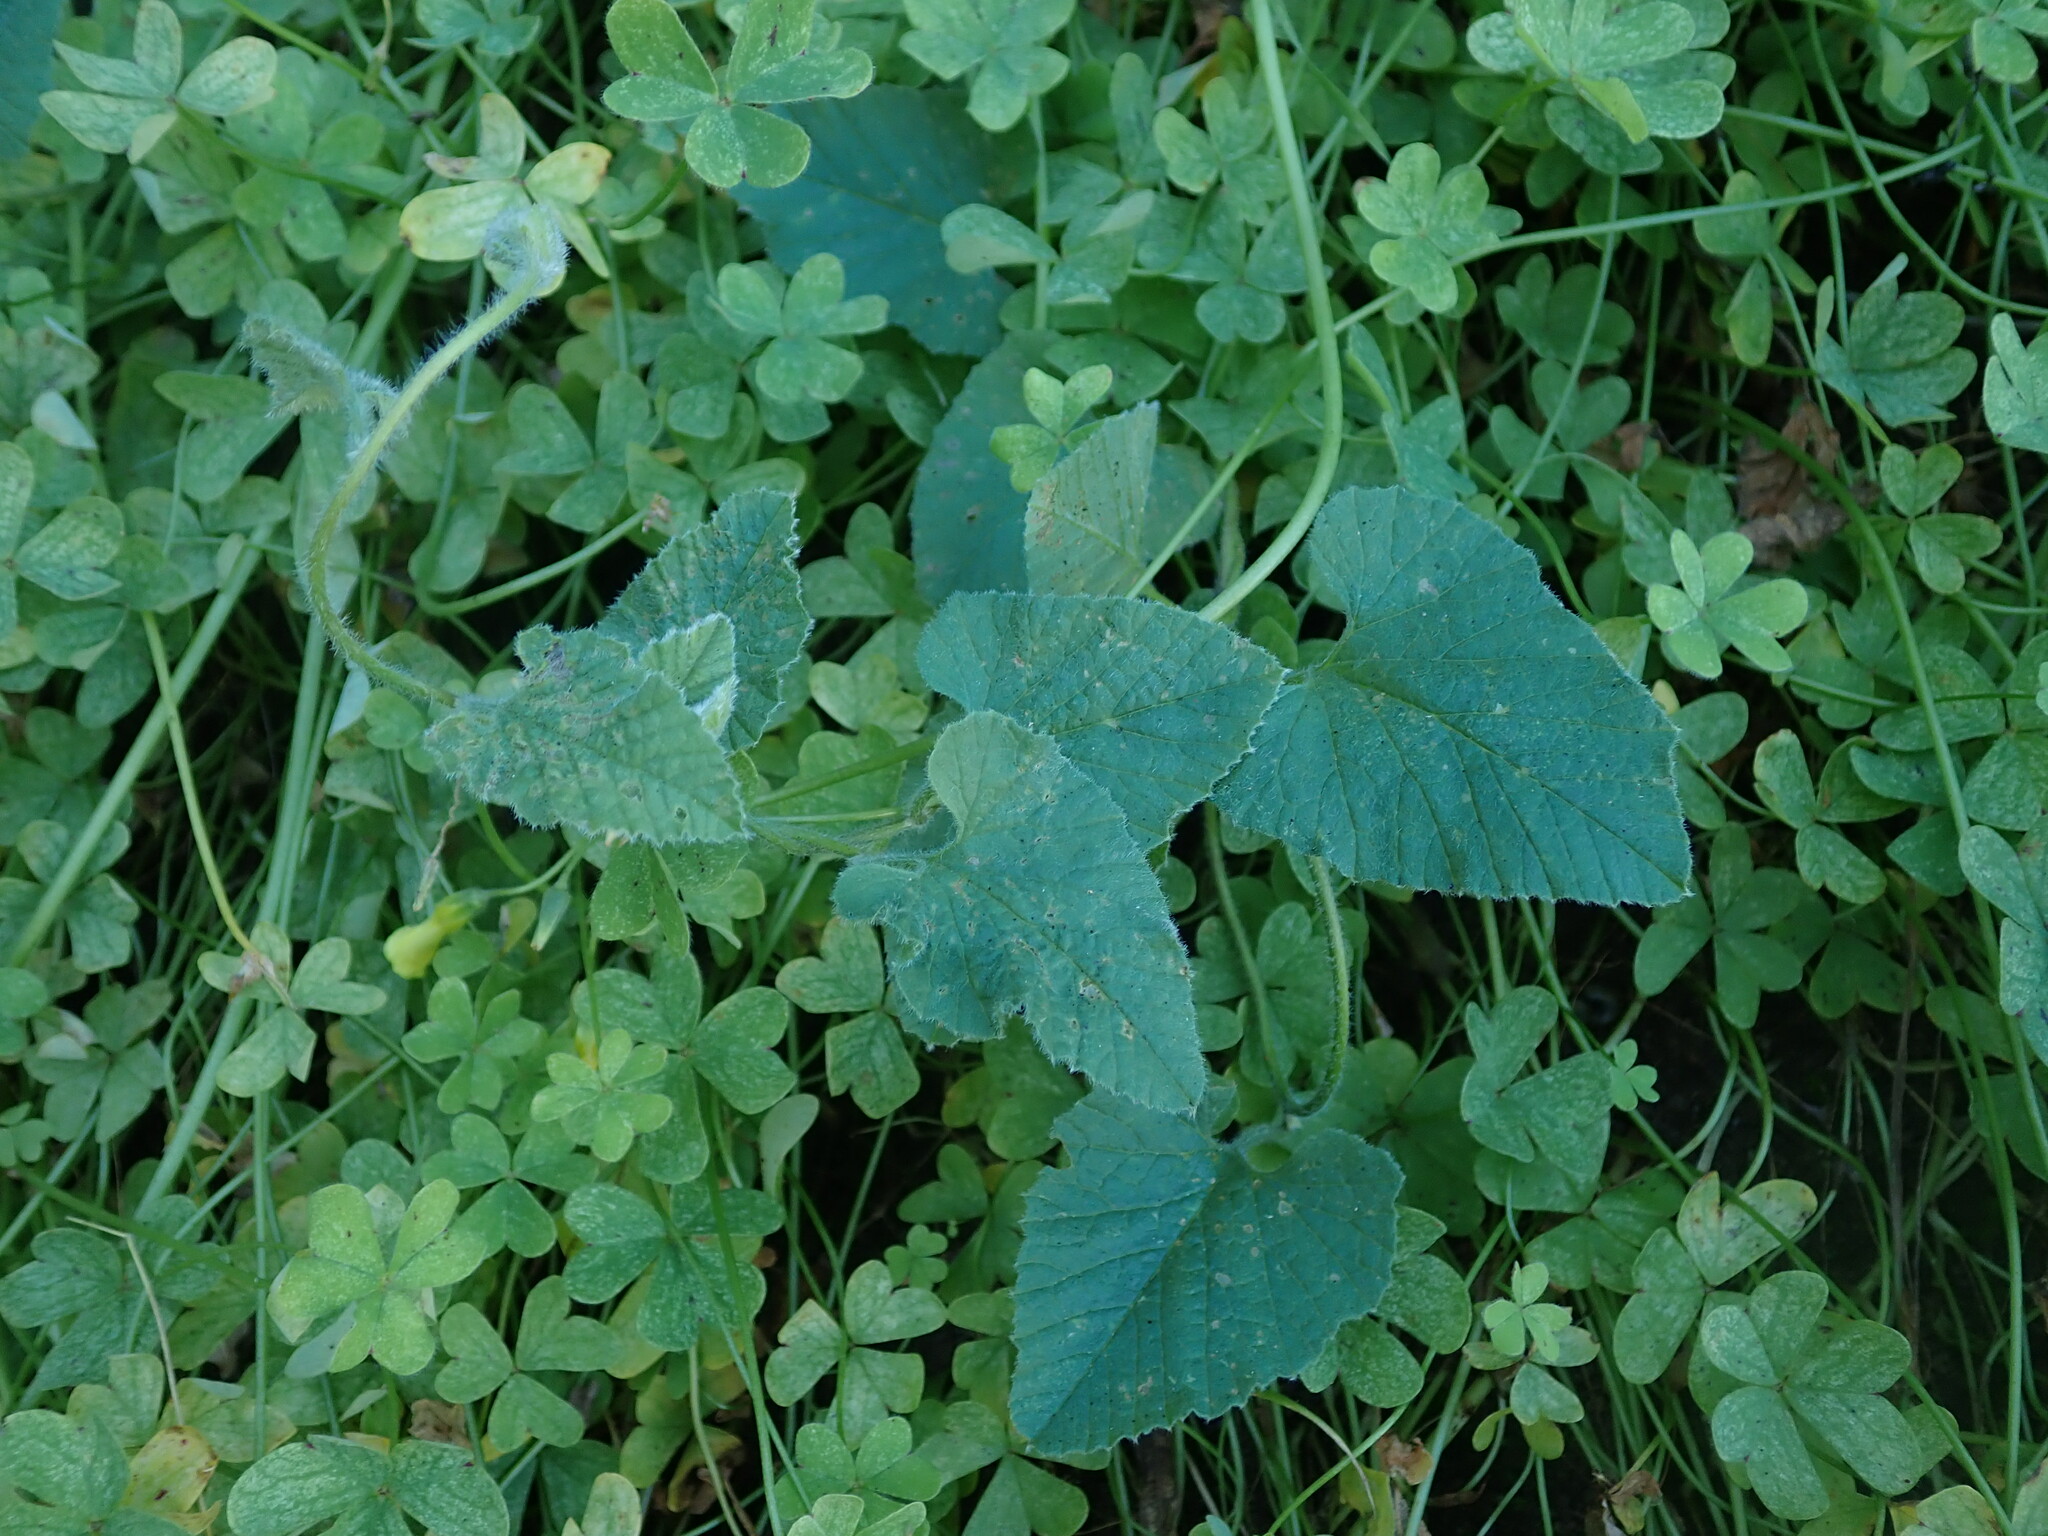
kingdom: Plantae
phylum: Tracheophyta
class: Magnoliopsida
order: Solanales
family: Convolvulaceae
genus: Convolvulus
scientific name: Convolvulus althaeoides
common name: Mallow bindweed
